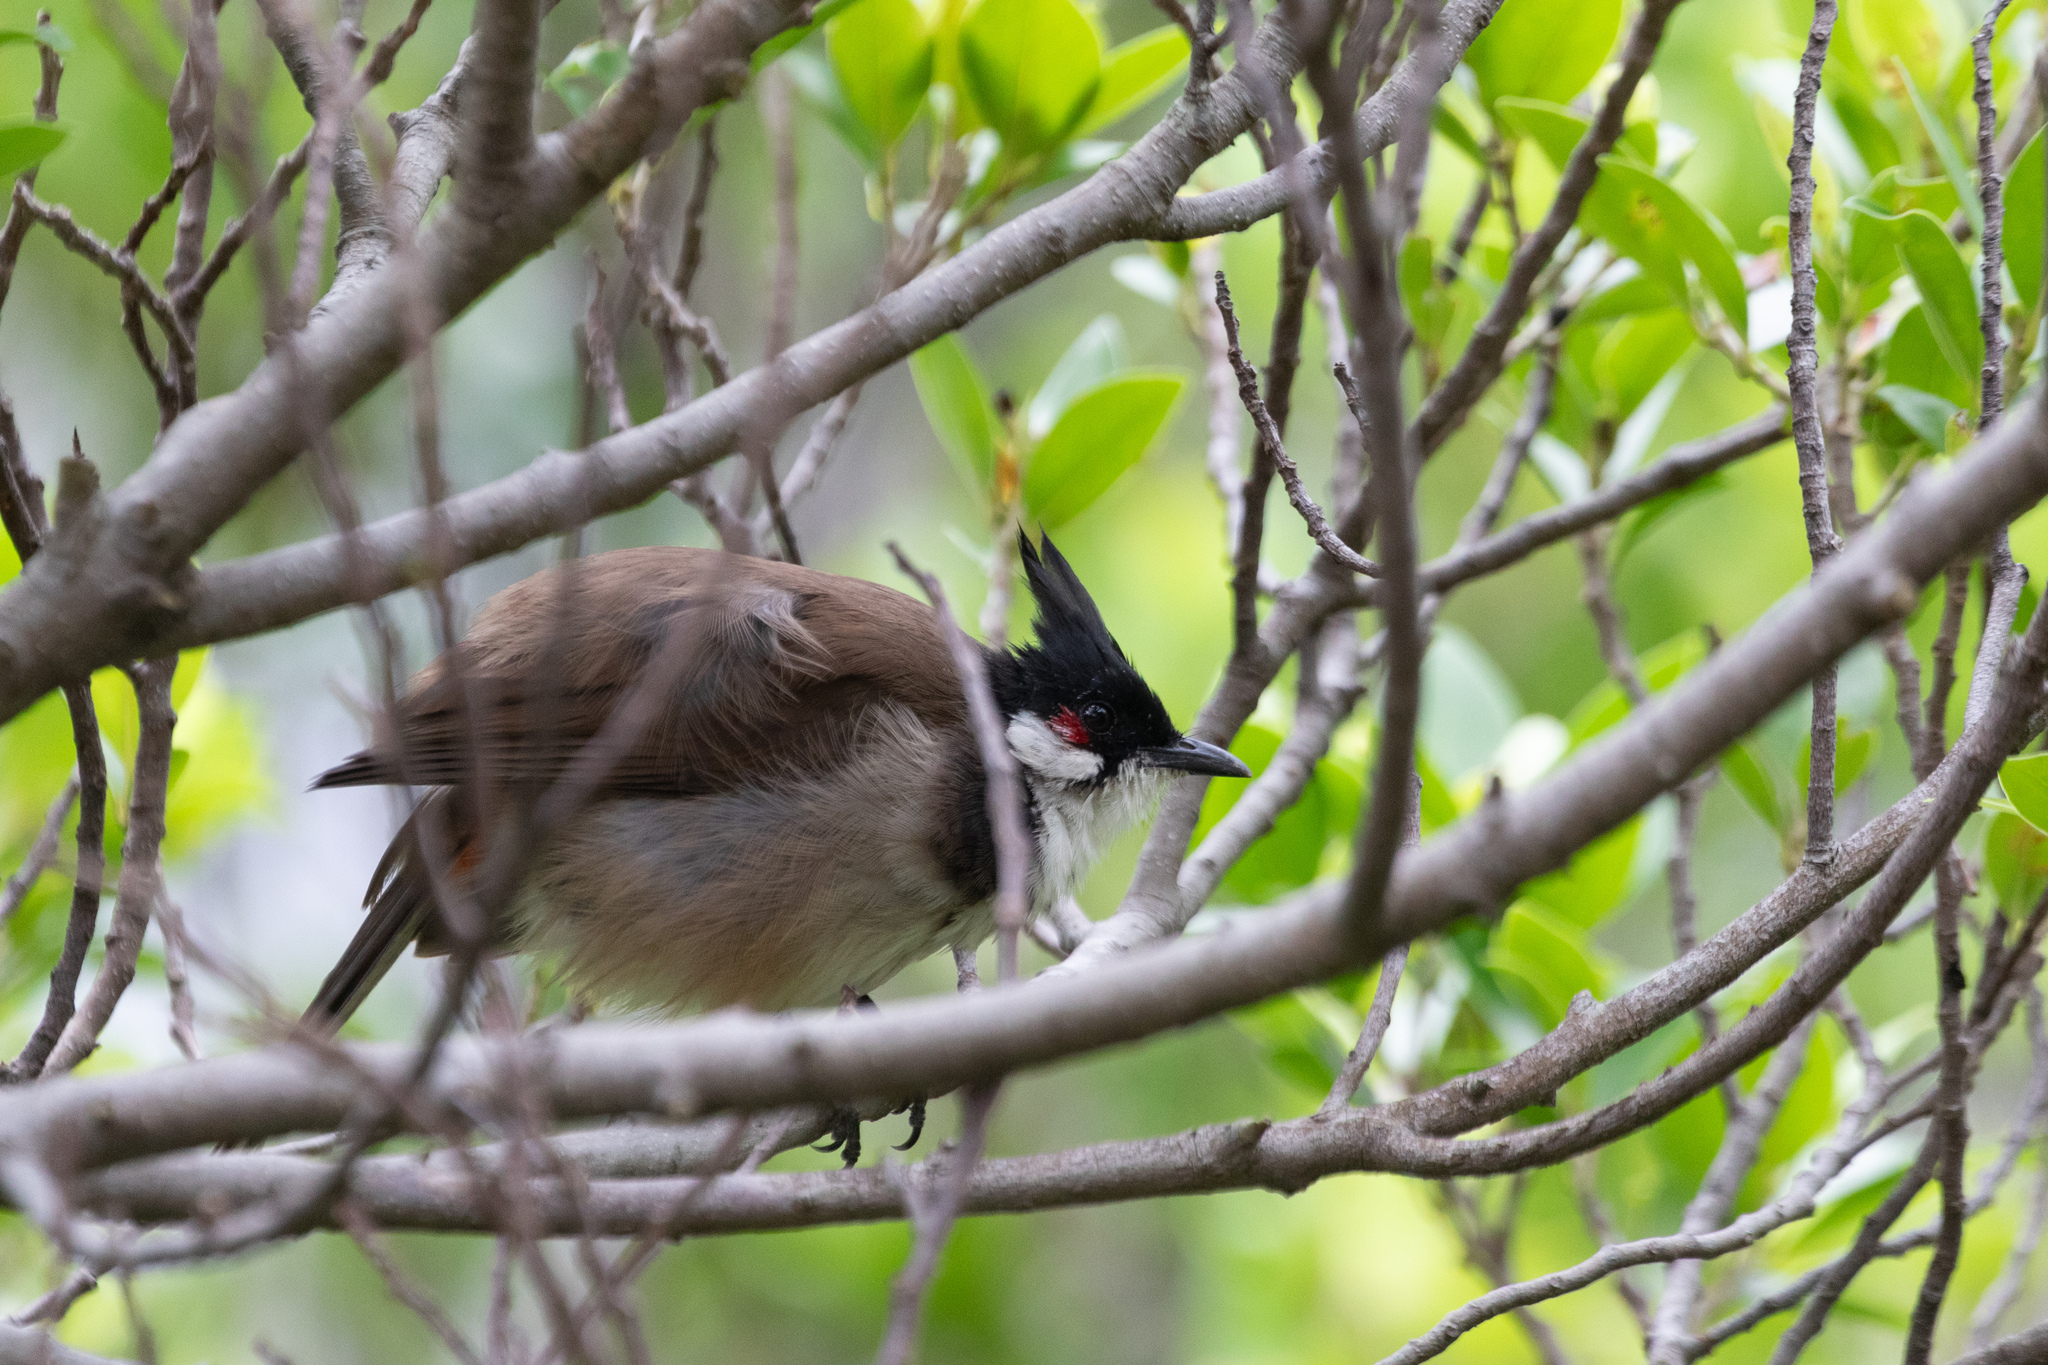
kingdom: Animalia
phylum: Chordata
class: Aves
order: Passeriformes
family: Pycnonotidae
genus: Pycnonotus
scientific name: Pycnonotus jocosus
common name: Red-whiskered bulbul
